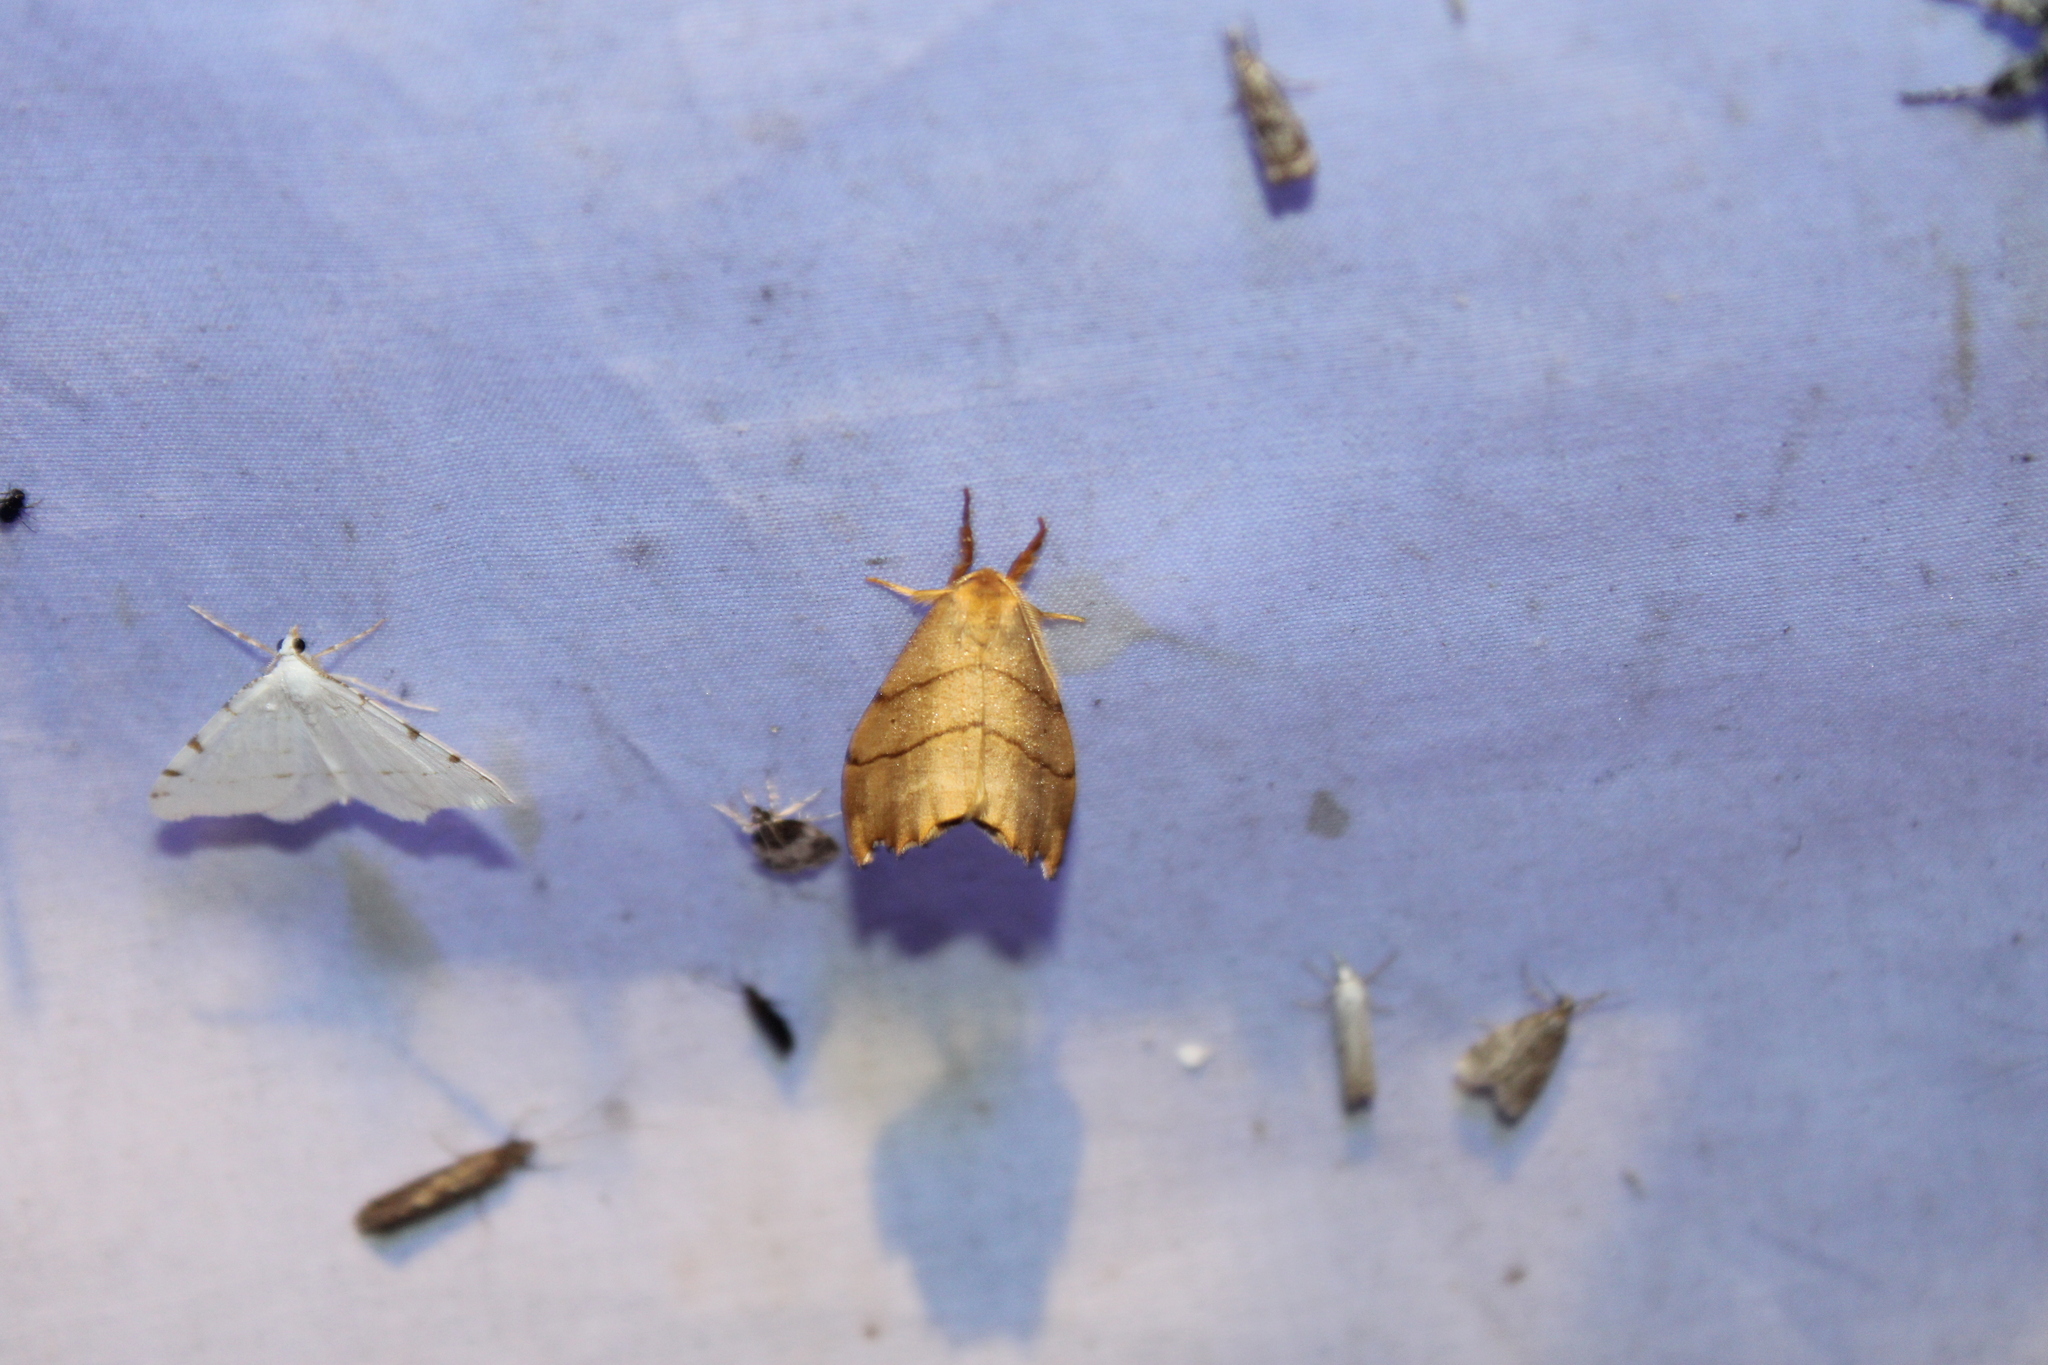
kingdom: Animalia
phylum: Arthropoda
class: Insecta
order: Lepidoptera
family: Drepanidae
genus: Falcaria
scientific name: Falcaria bilineata
